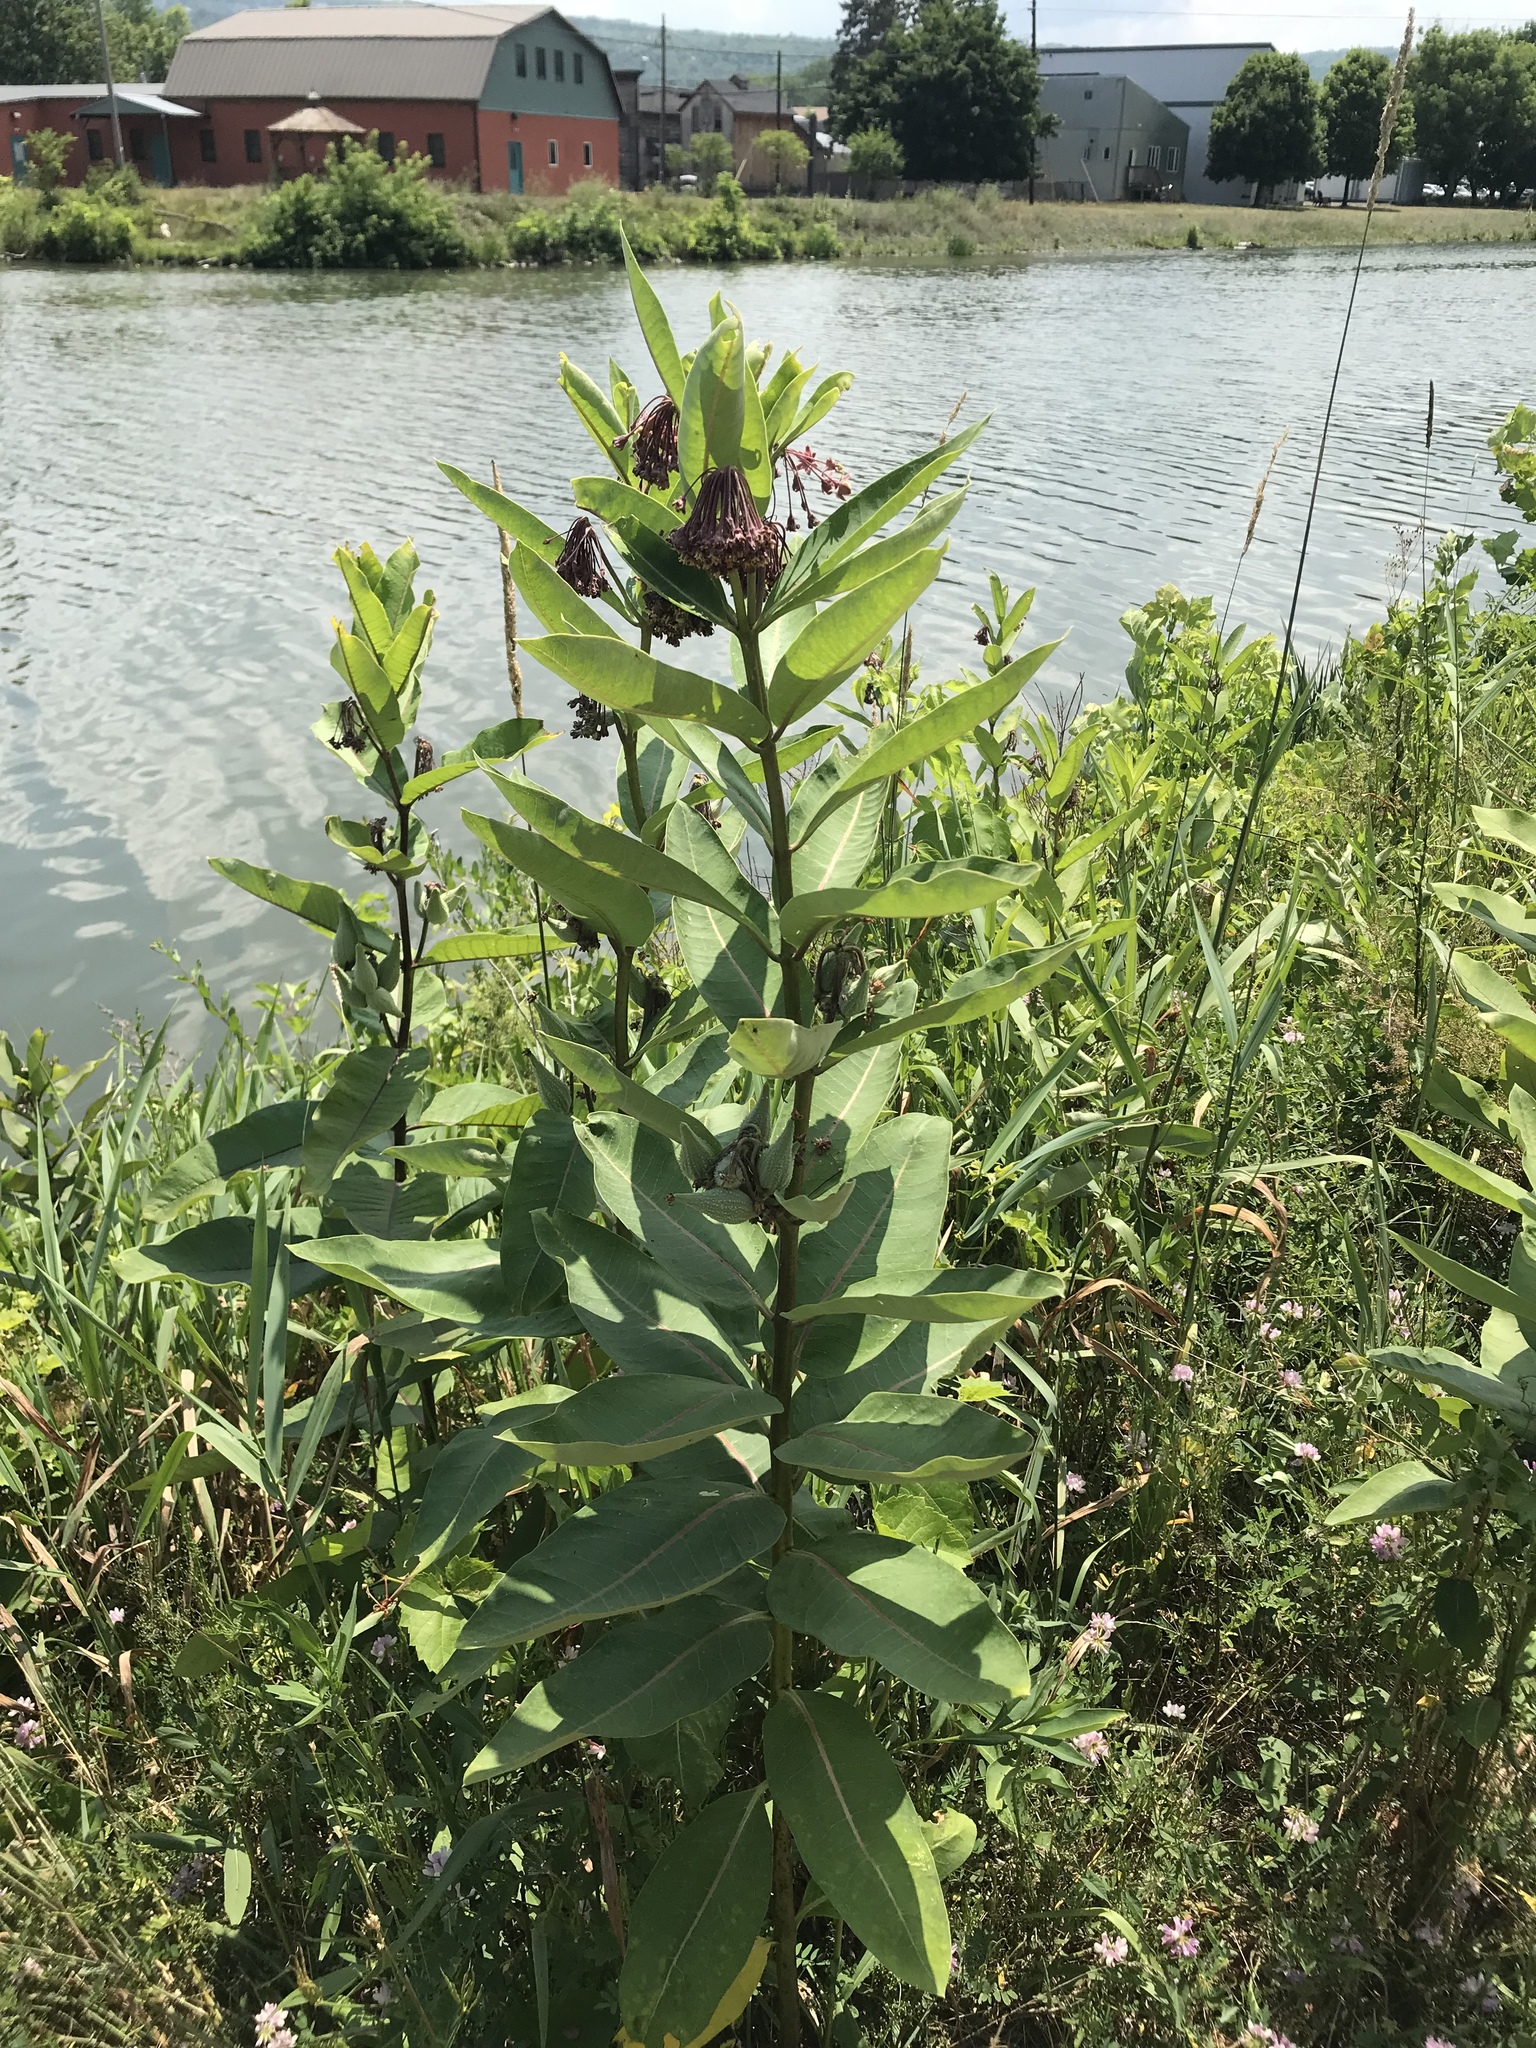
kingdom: Plantae
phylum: Tracheophyta
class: Magnoliopsida
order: Gentianales
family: Apocynaceae
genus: Asclepias
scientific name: Asclepias syriaca
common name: Common milkweed
